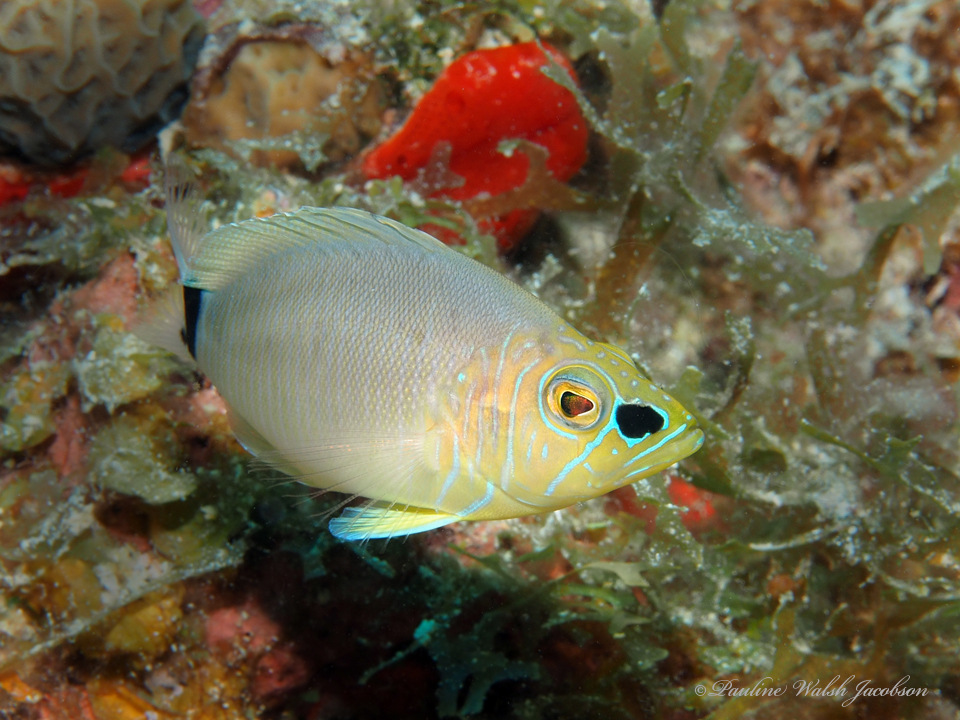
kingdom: Animalia
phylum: Chordata
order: Perciformes
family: Serranidae
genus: Hypoplectrus
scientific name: Hypoplectrus unicolor
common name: Butter hamlet
